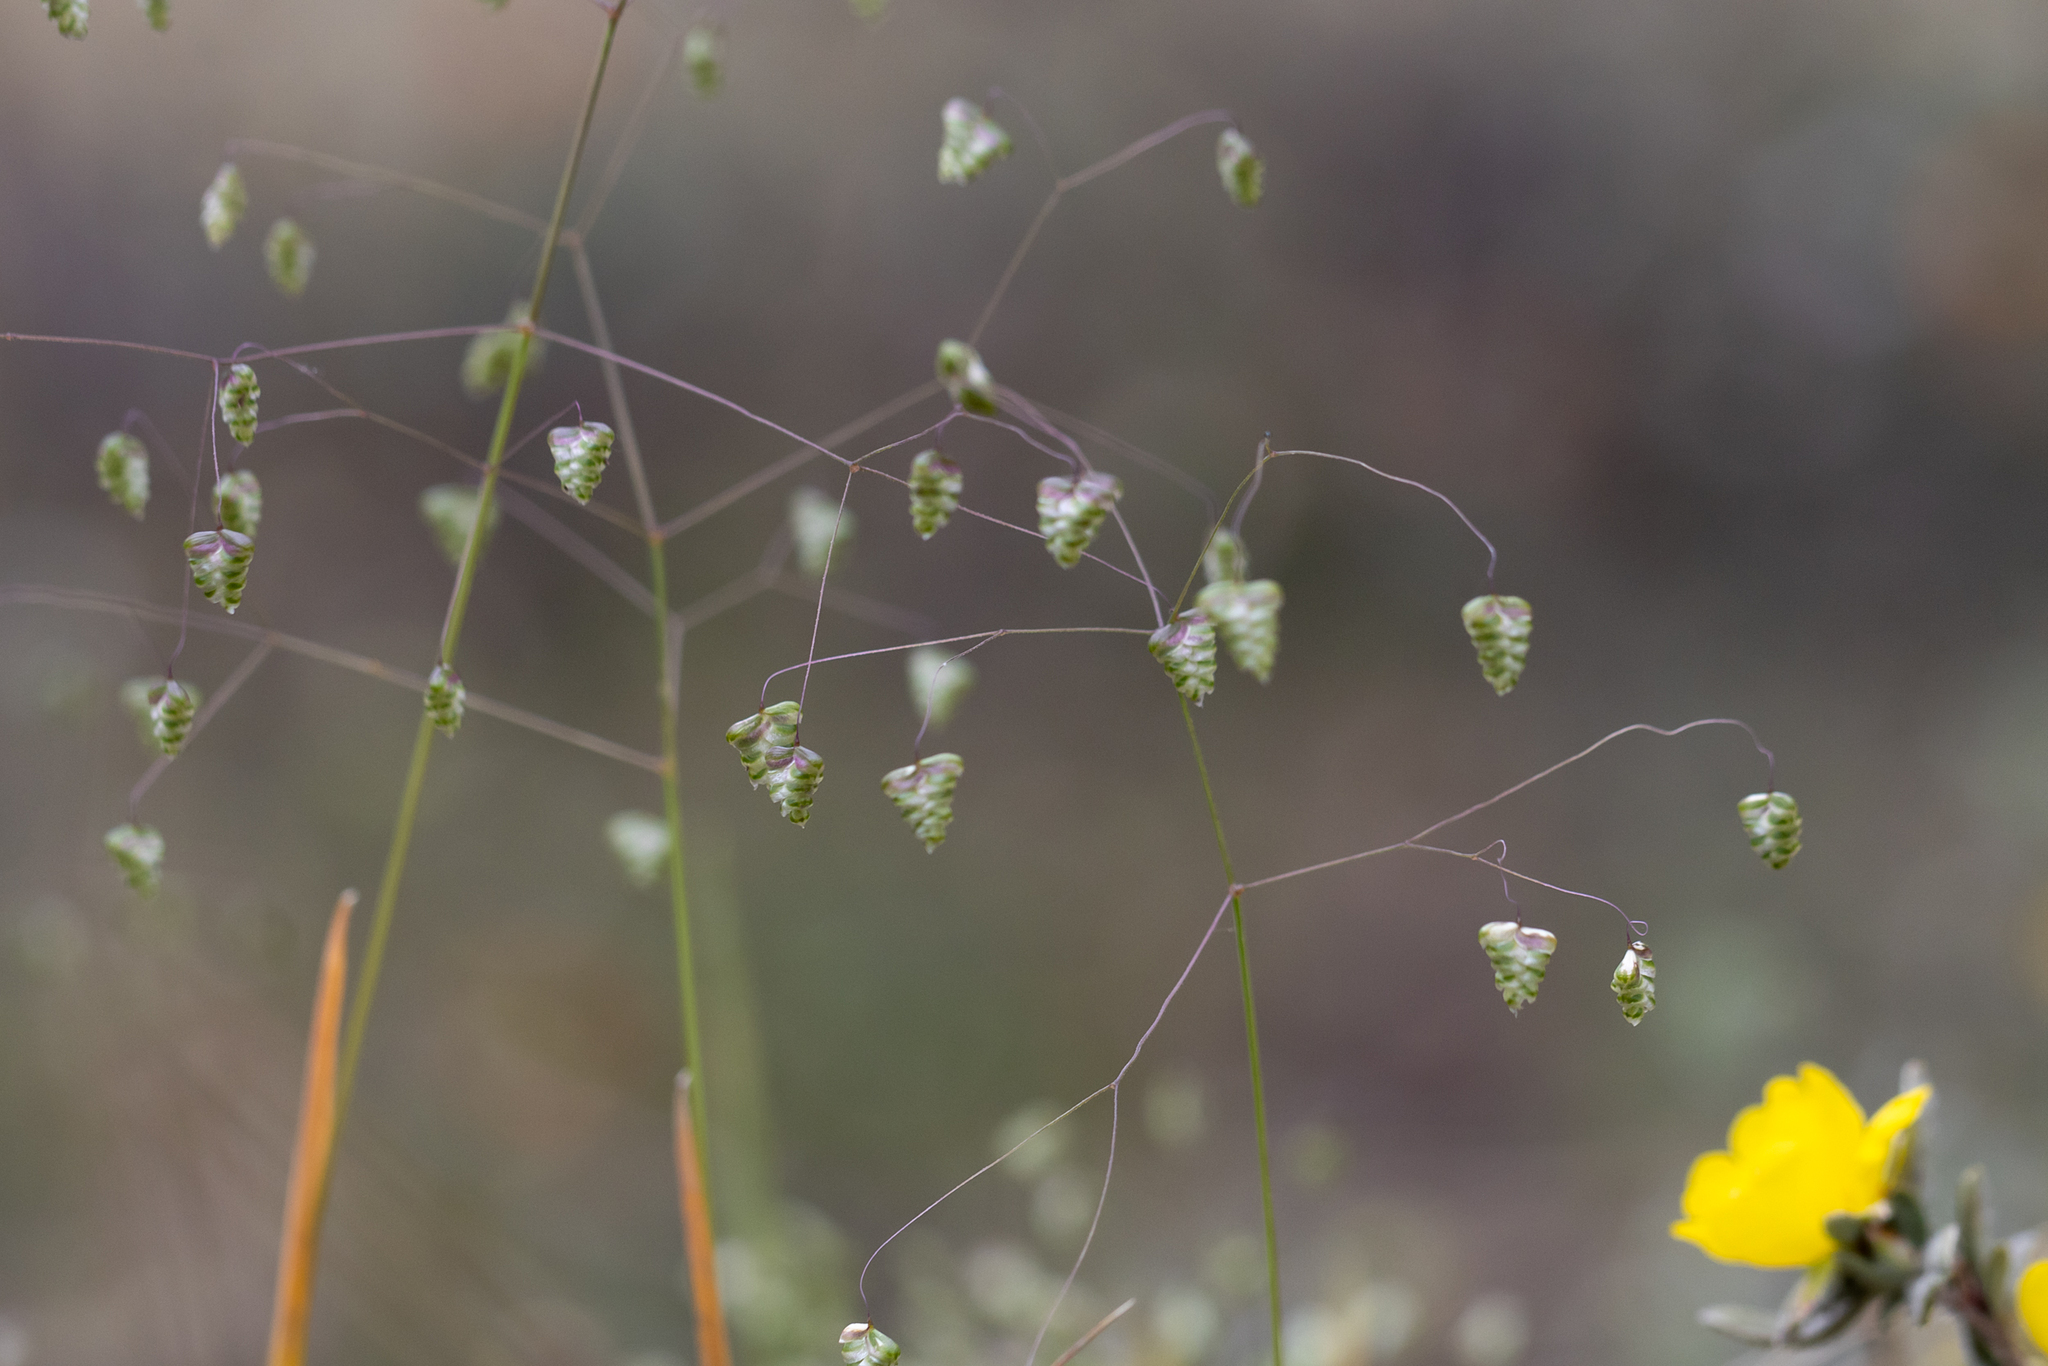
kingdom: Plantae
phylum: Tracheophyta
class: Liliopsida
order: Poales
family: Poaceae
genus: Briza
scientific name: Briza minor
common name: Lesser quaking-grass
